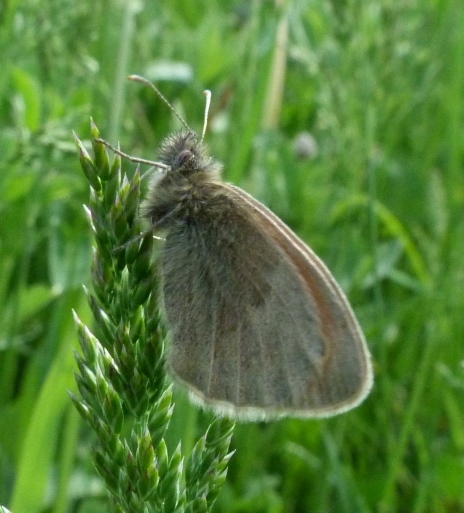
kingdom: Animalia
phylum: Arthropoda
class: Insecta
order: Lepidoptera
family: Nymphalidae
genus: Coenonympha
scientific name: Coenonympha pamphilus
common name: Small heath
